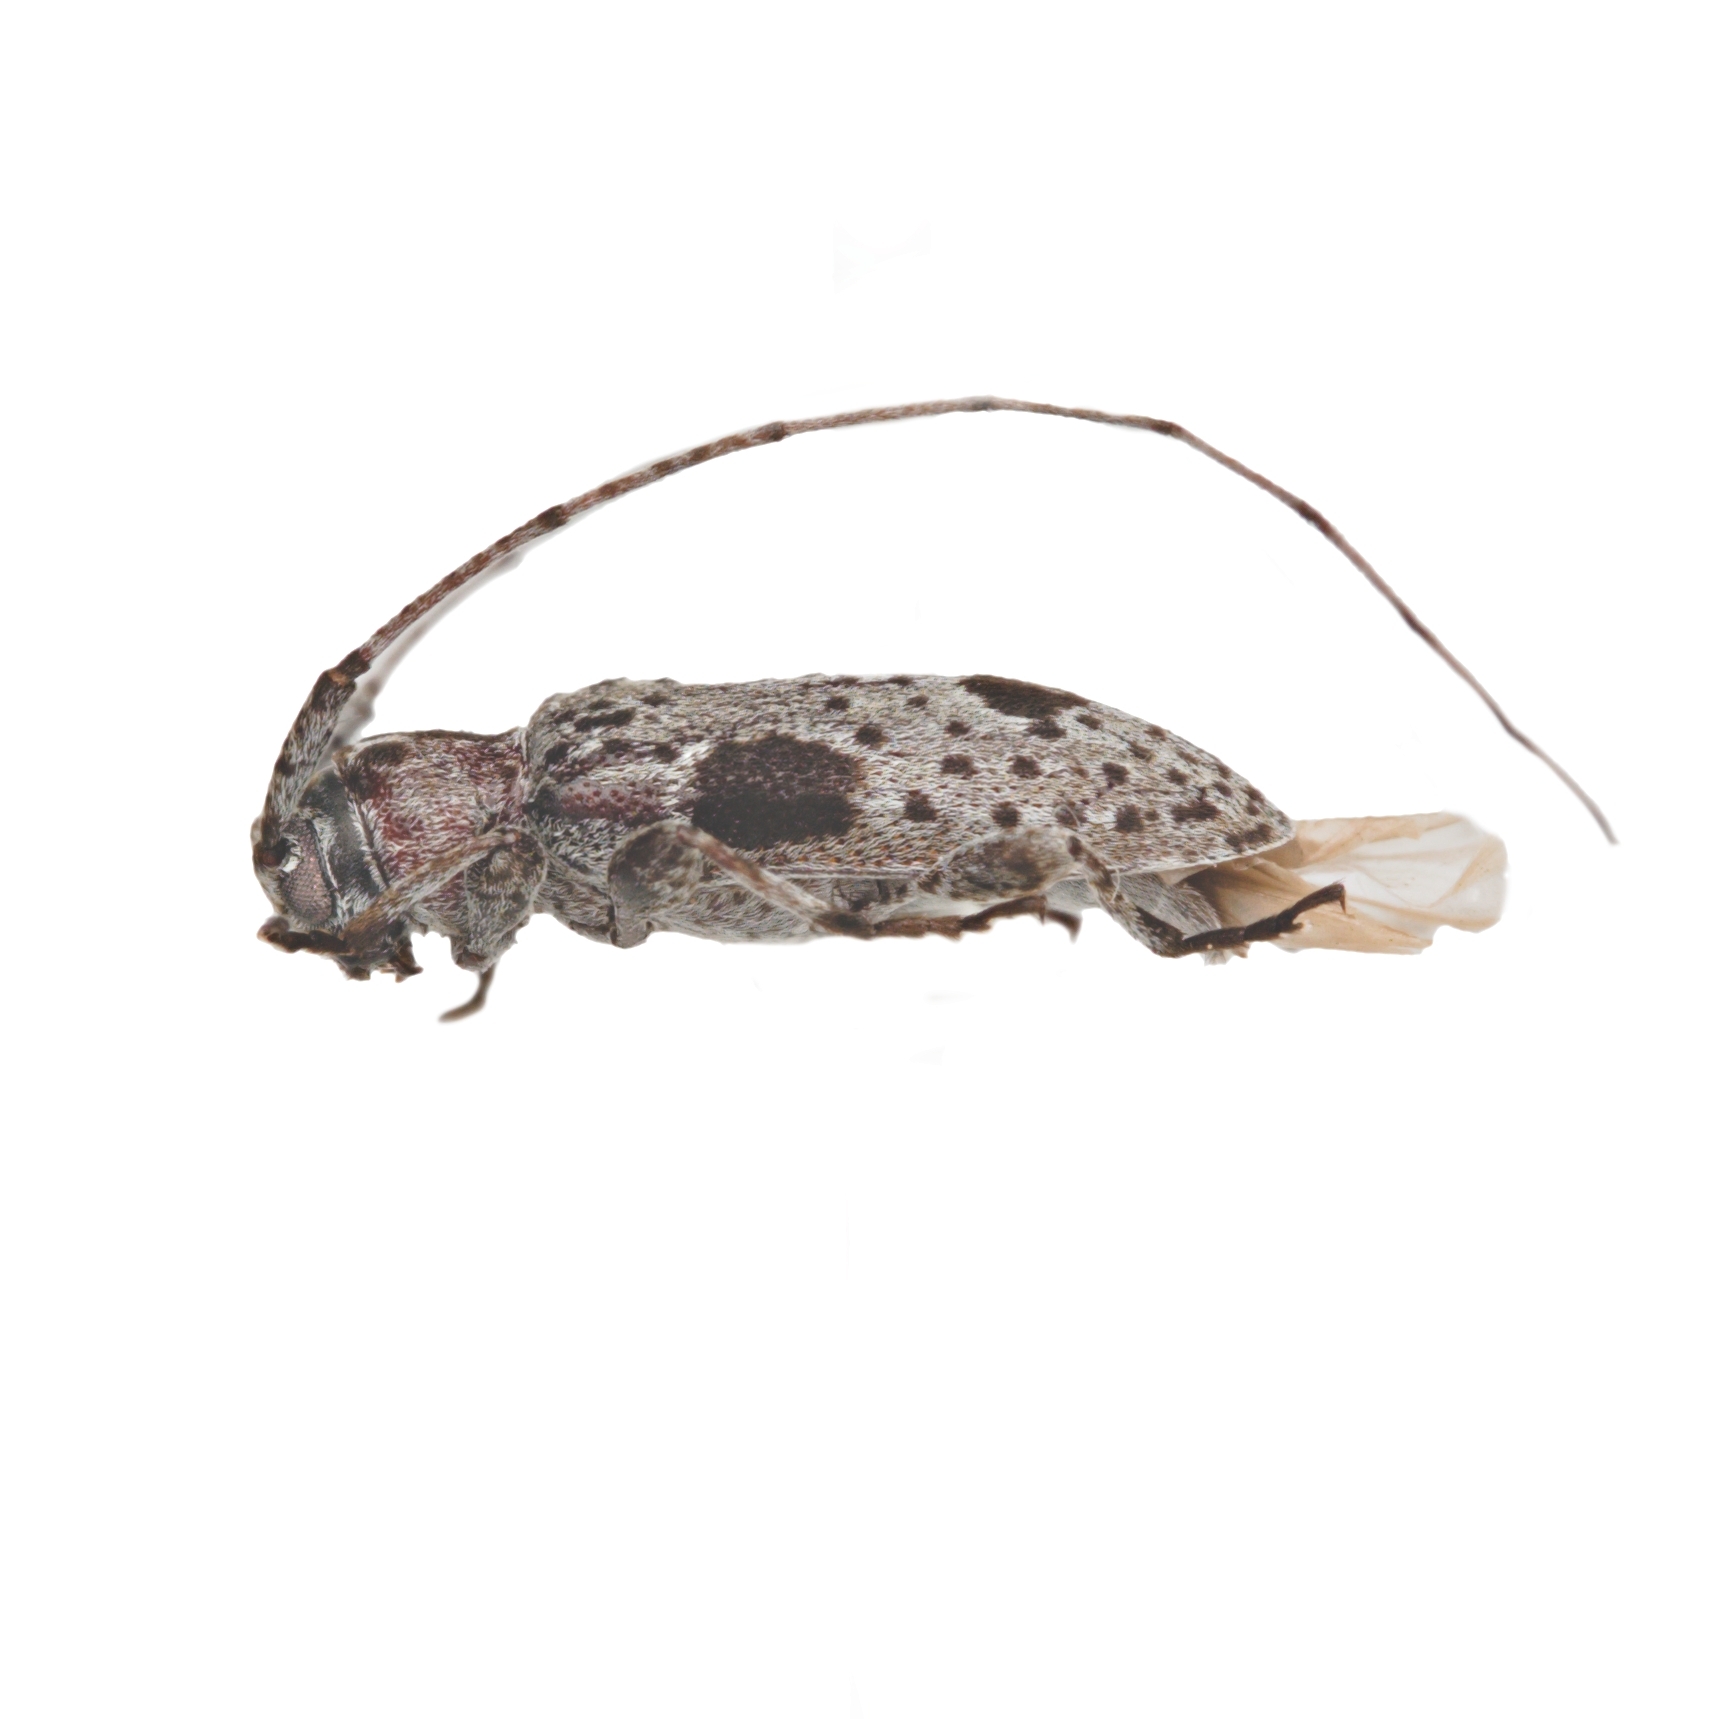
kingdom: Animalia
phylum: Arthropoda
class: Insecta
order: Coleoptera
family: Cerambycidae
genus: Sternidius
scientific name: Sternidius imitans
